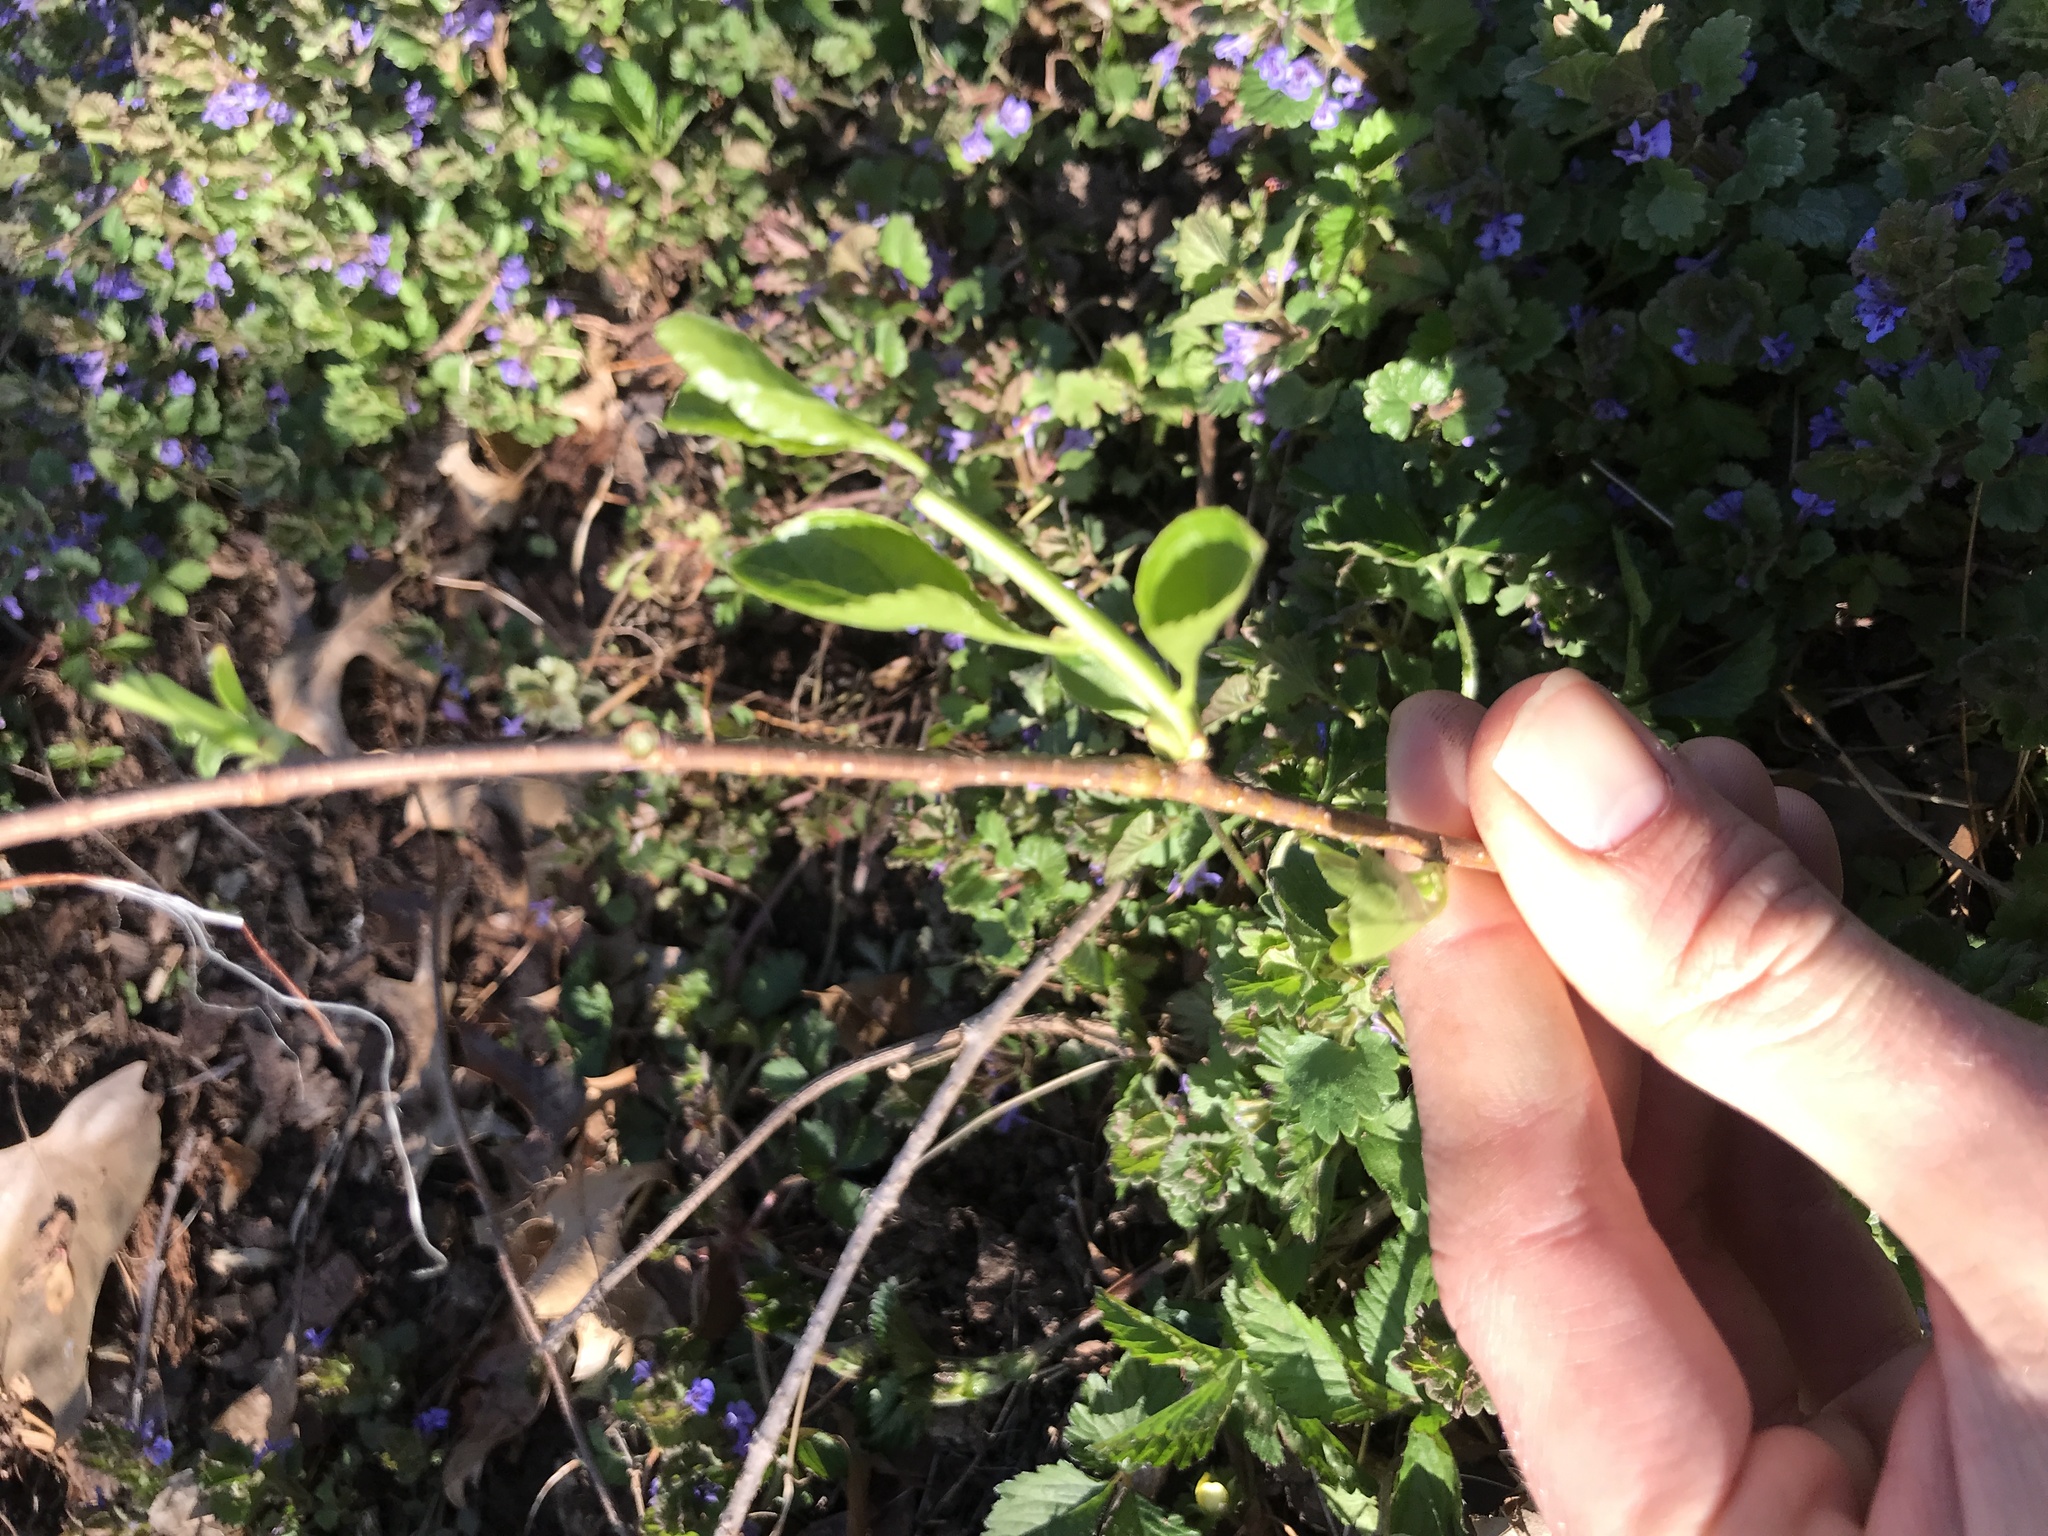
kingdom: Plantae
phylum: Tracheophyta
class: Magnoliopsida
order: Celastrales
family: Celastraceae
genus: Celastrus
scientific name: Celastrus orbiculatus
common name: Oriental bittersweet
